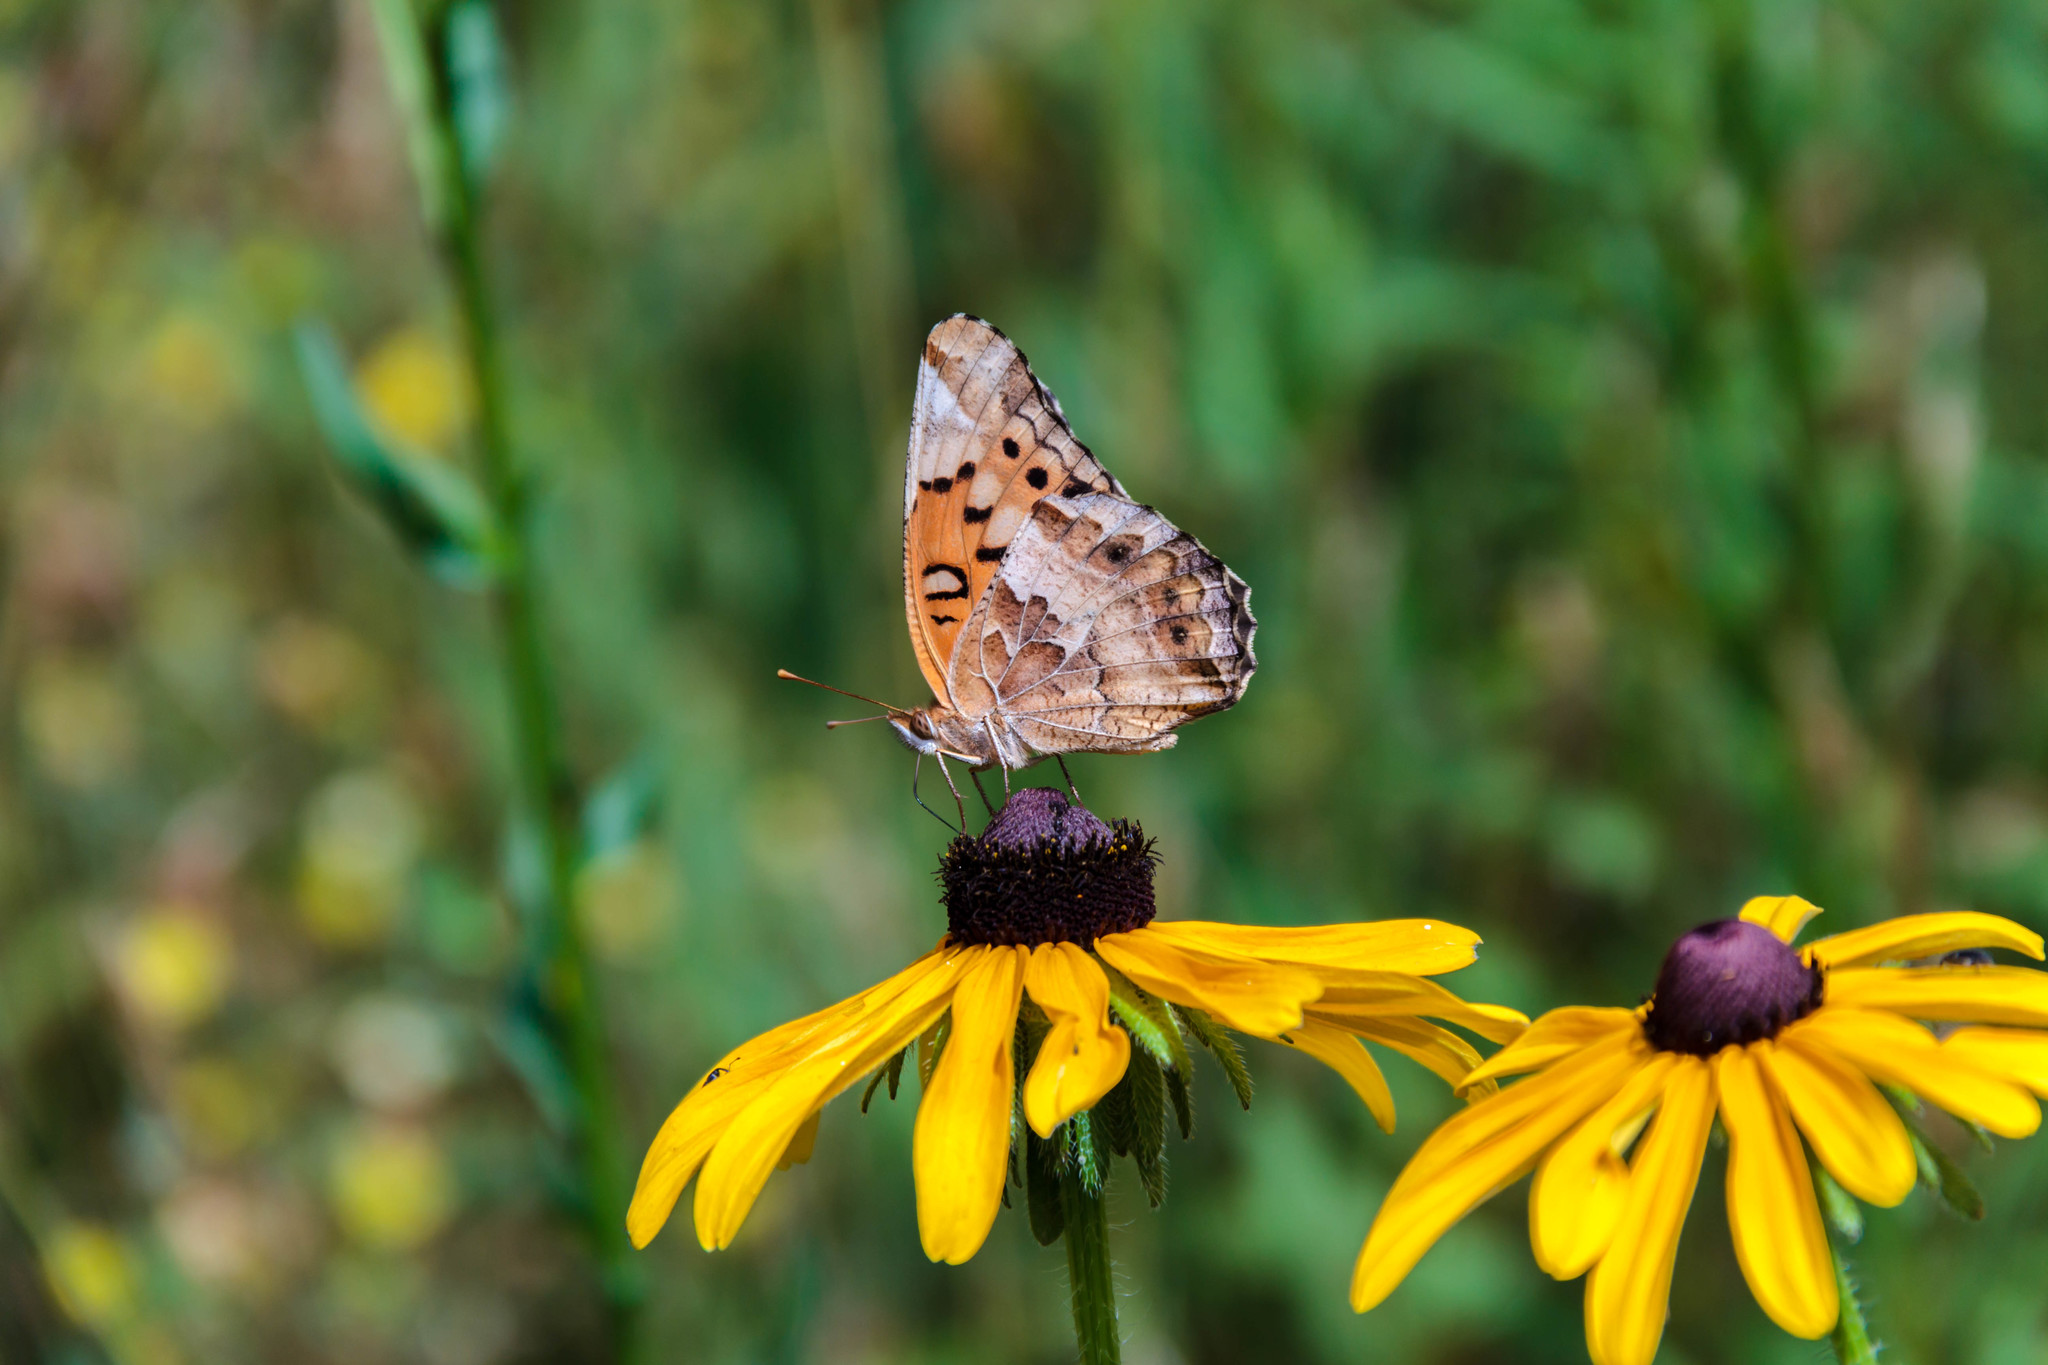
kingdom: Animalia
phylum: Arthropoda
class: Insecta
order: Lepidoptera
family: Nymphalidae
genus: Euptoieta
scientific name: Euptoieta claudia
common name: Variegated fritillary
